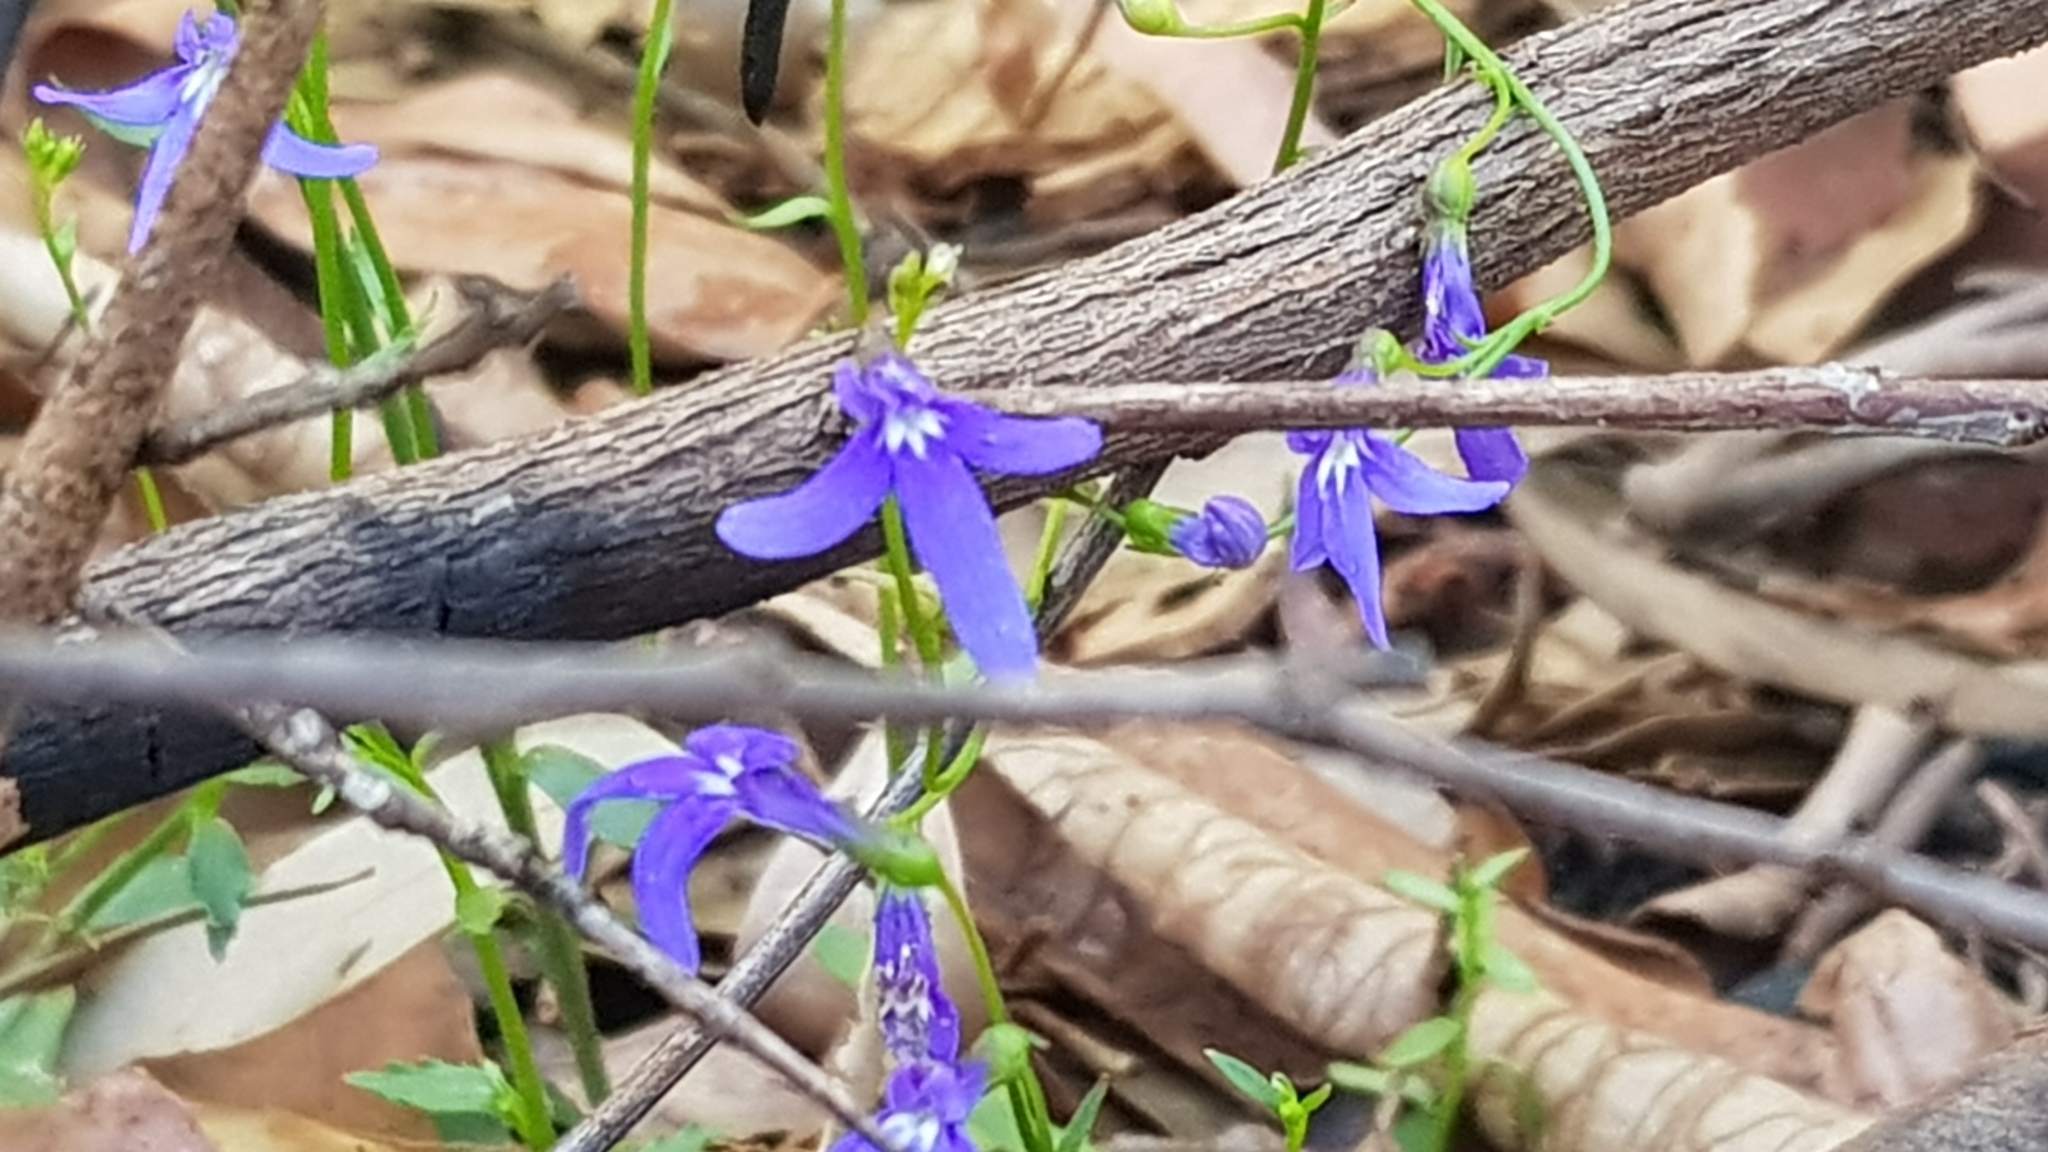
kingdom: Plantae
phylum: Tracheophyta
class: Magnoliopsida
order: Asterales
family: Campanulaceae
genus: Lobelia
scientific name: Lobelia dentata
